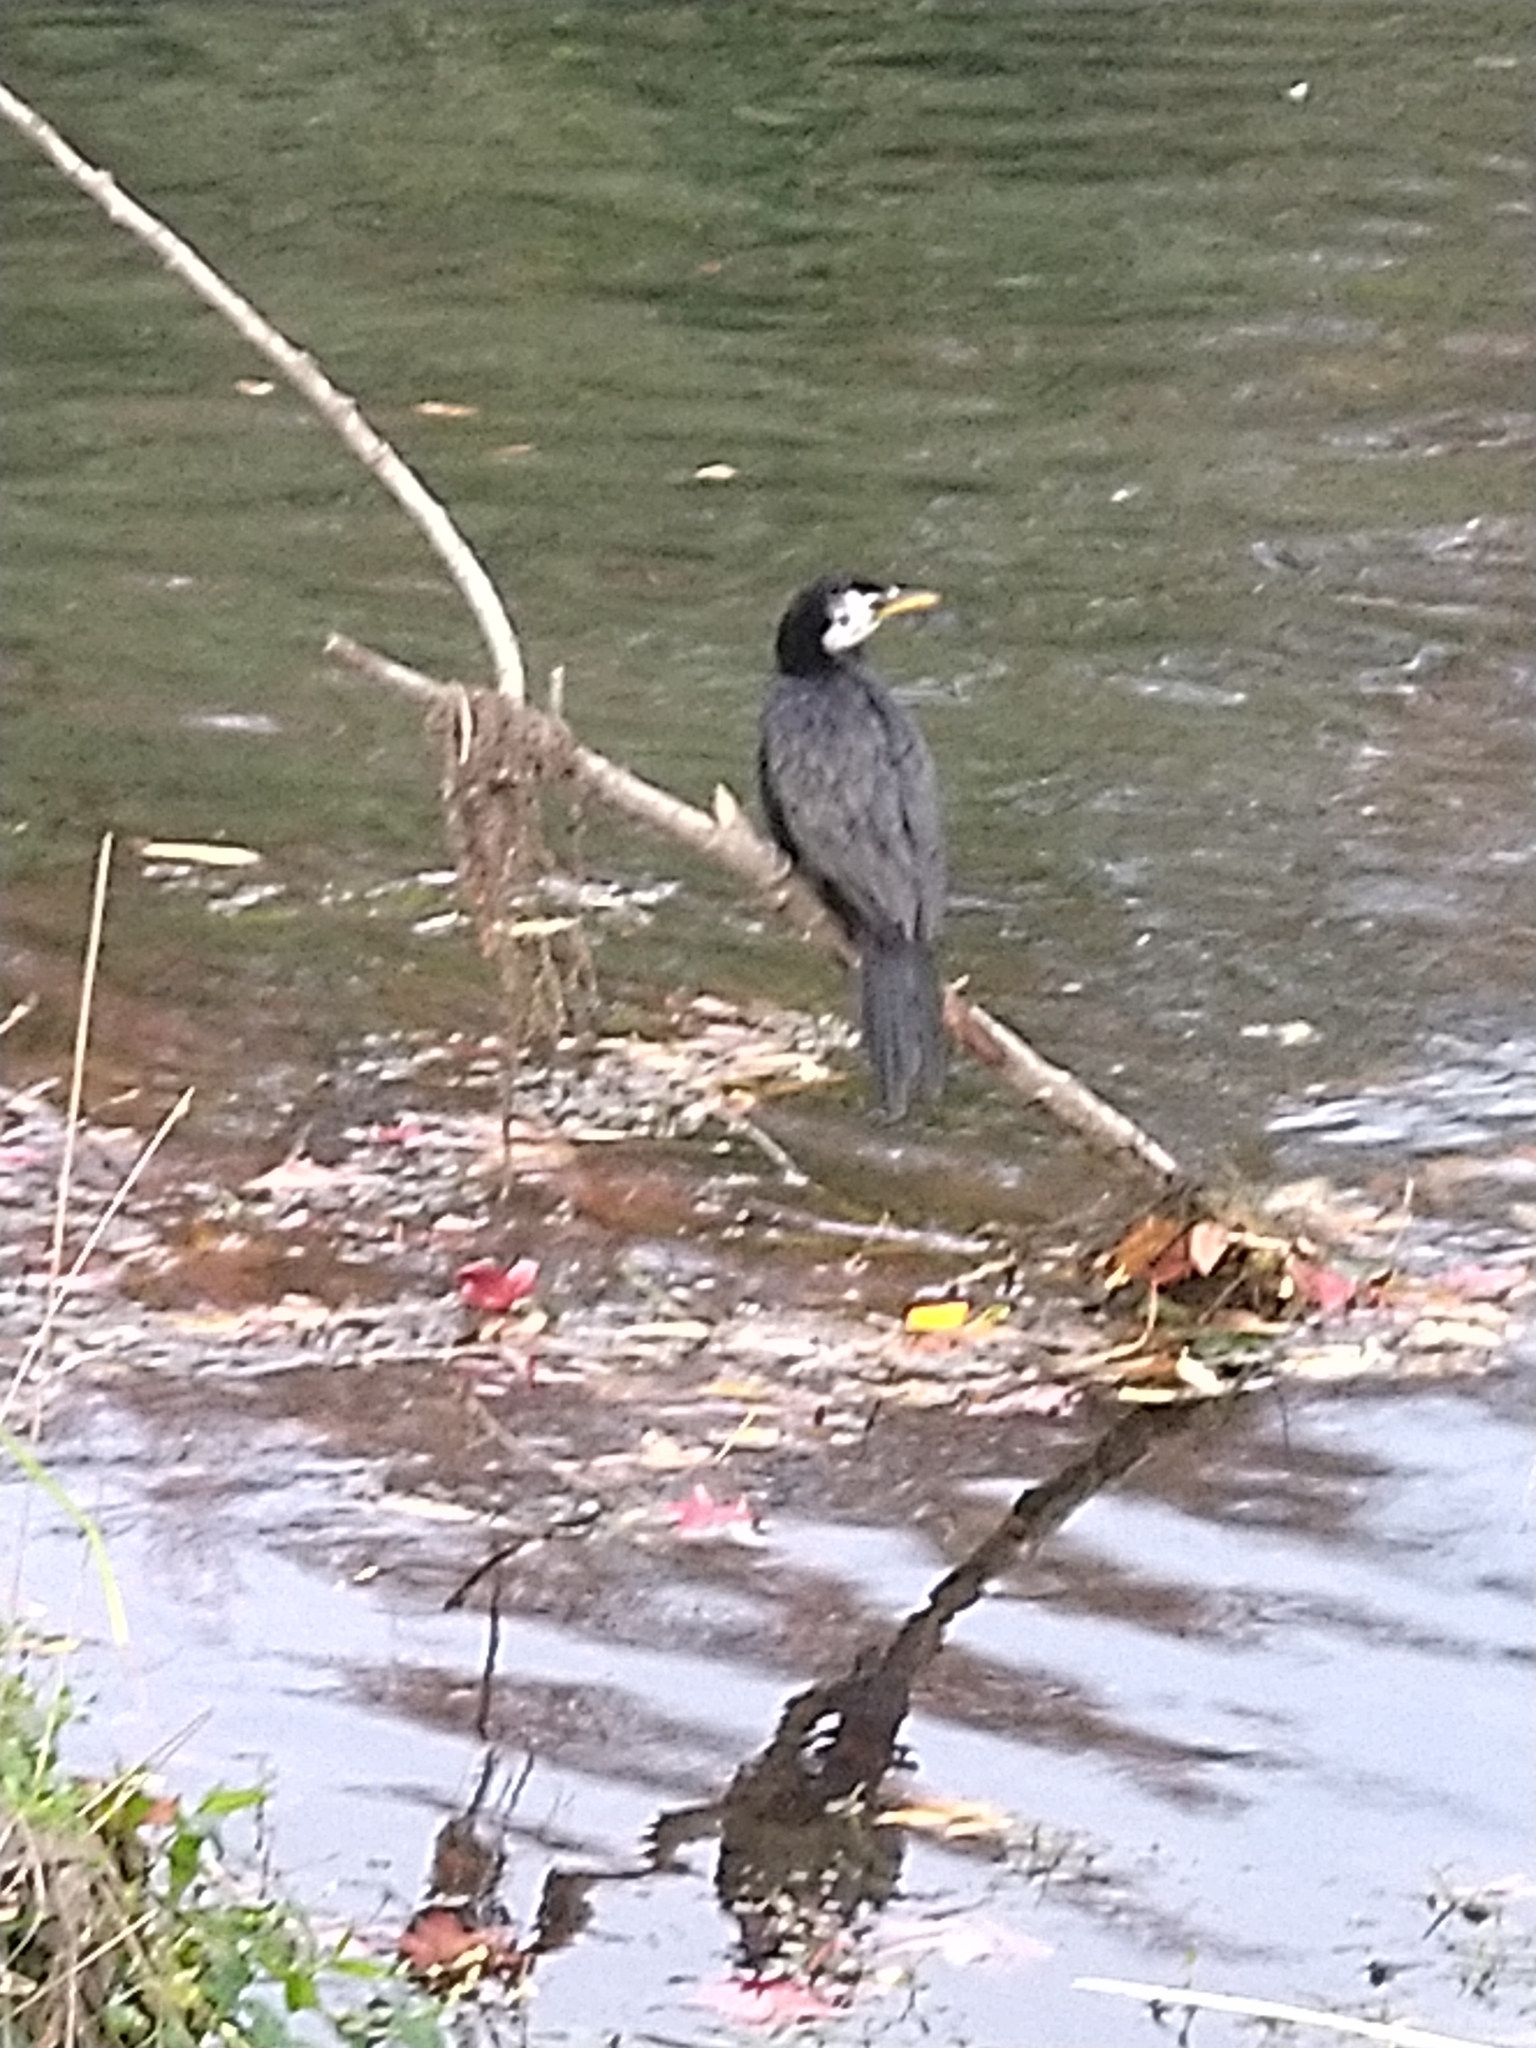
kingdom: Animalia
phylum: Chordata
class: Aves
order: Suliformes
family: Phalacrocoracidae
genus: Microcarbo
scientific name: Microcarbo melanoleucos
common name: Little pied cormorant
